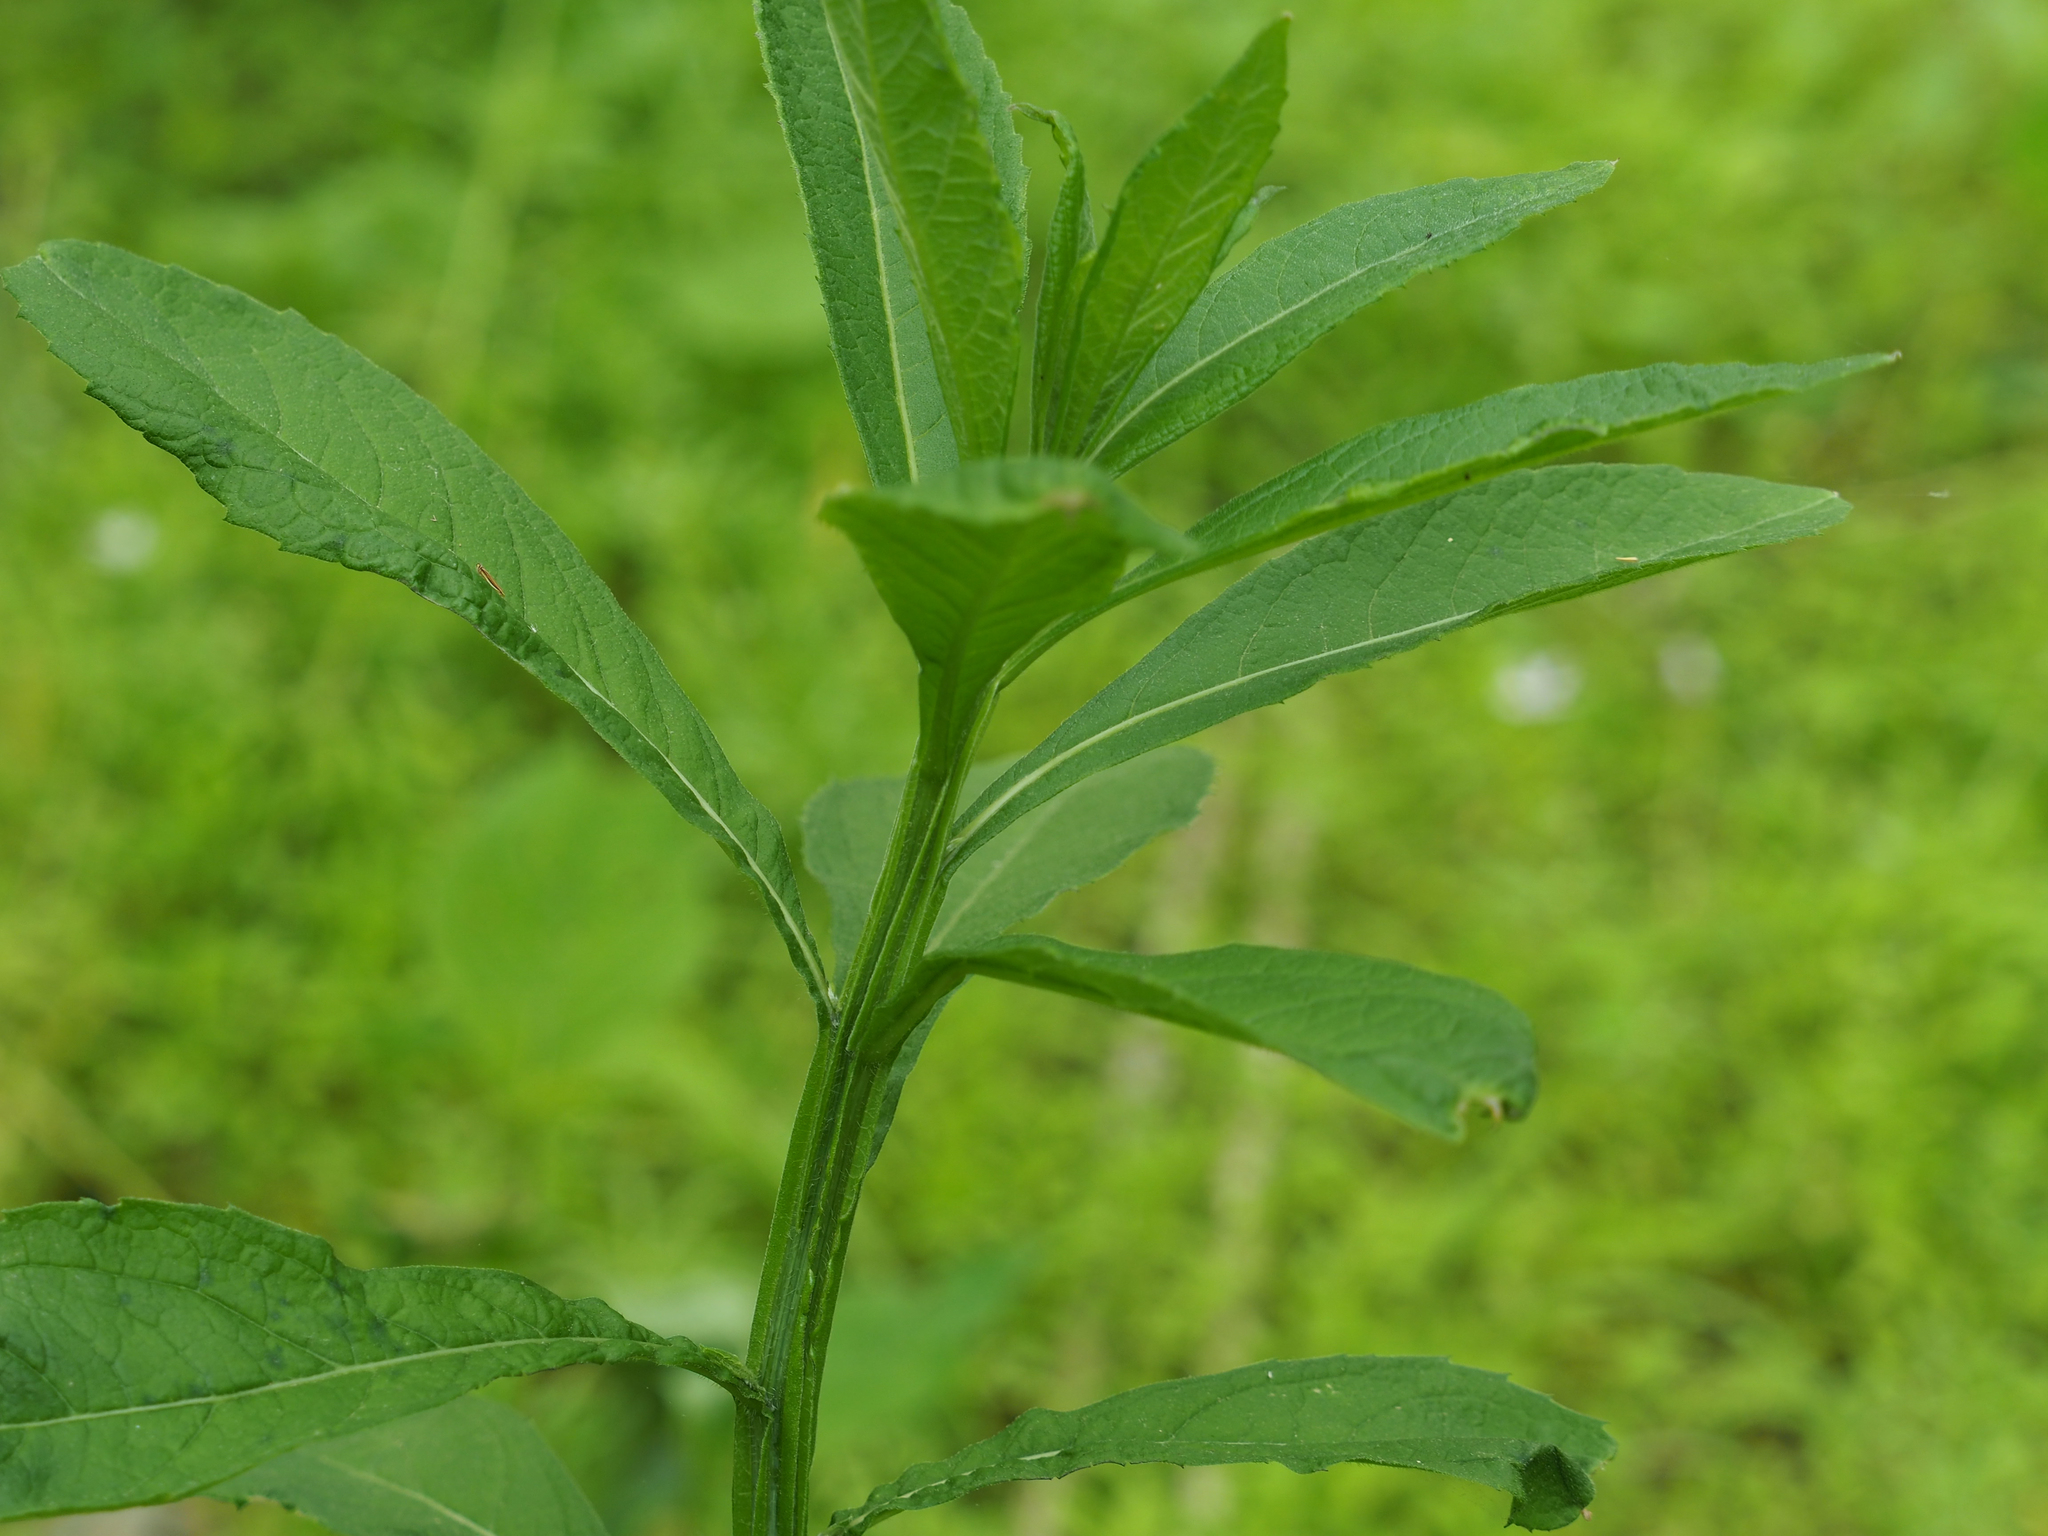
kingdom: Plantae
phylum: Tracheophyta
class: Magnoliopsida
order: Asterales
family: Asteraceae
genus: Verbesina
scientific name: Verbesina alternifolia
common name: Wingstem
